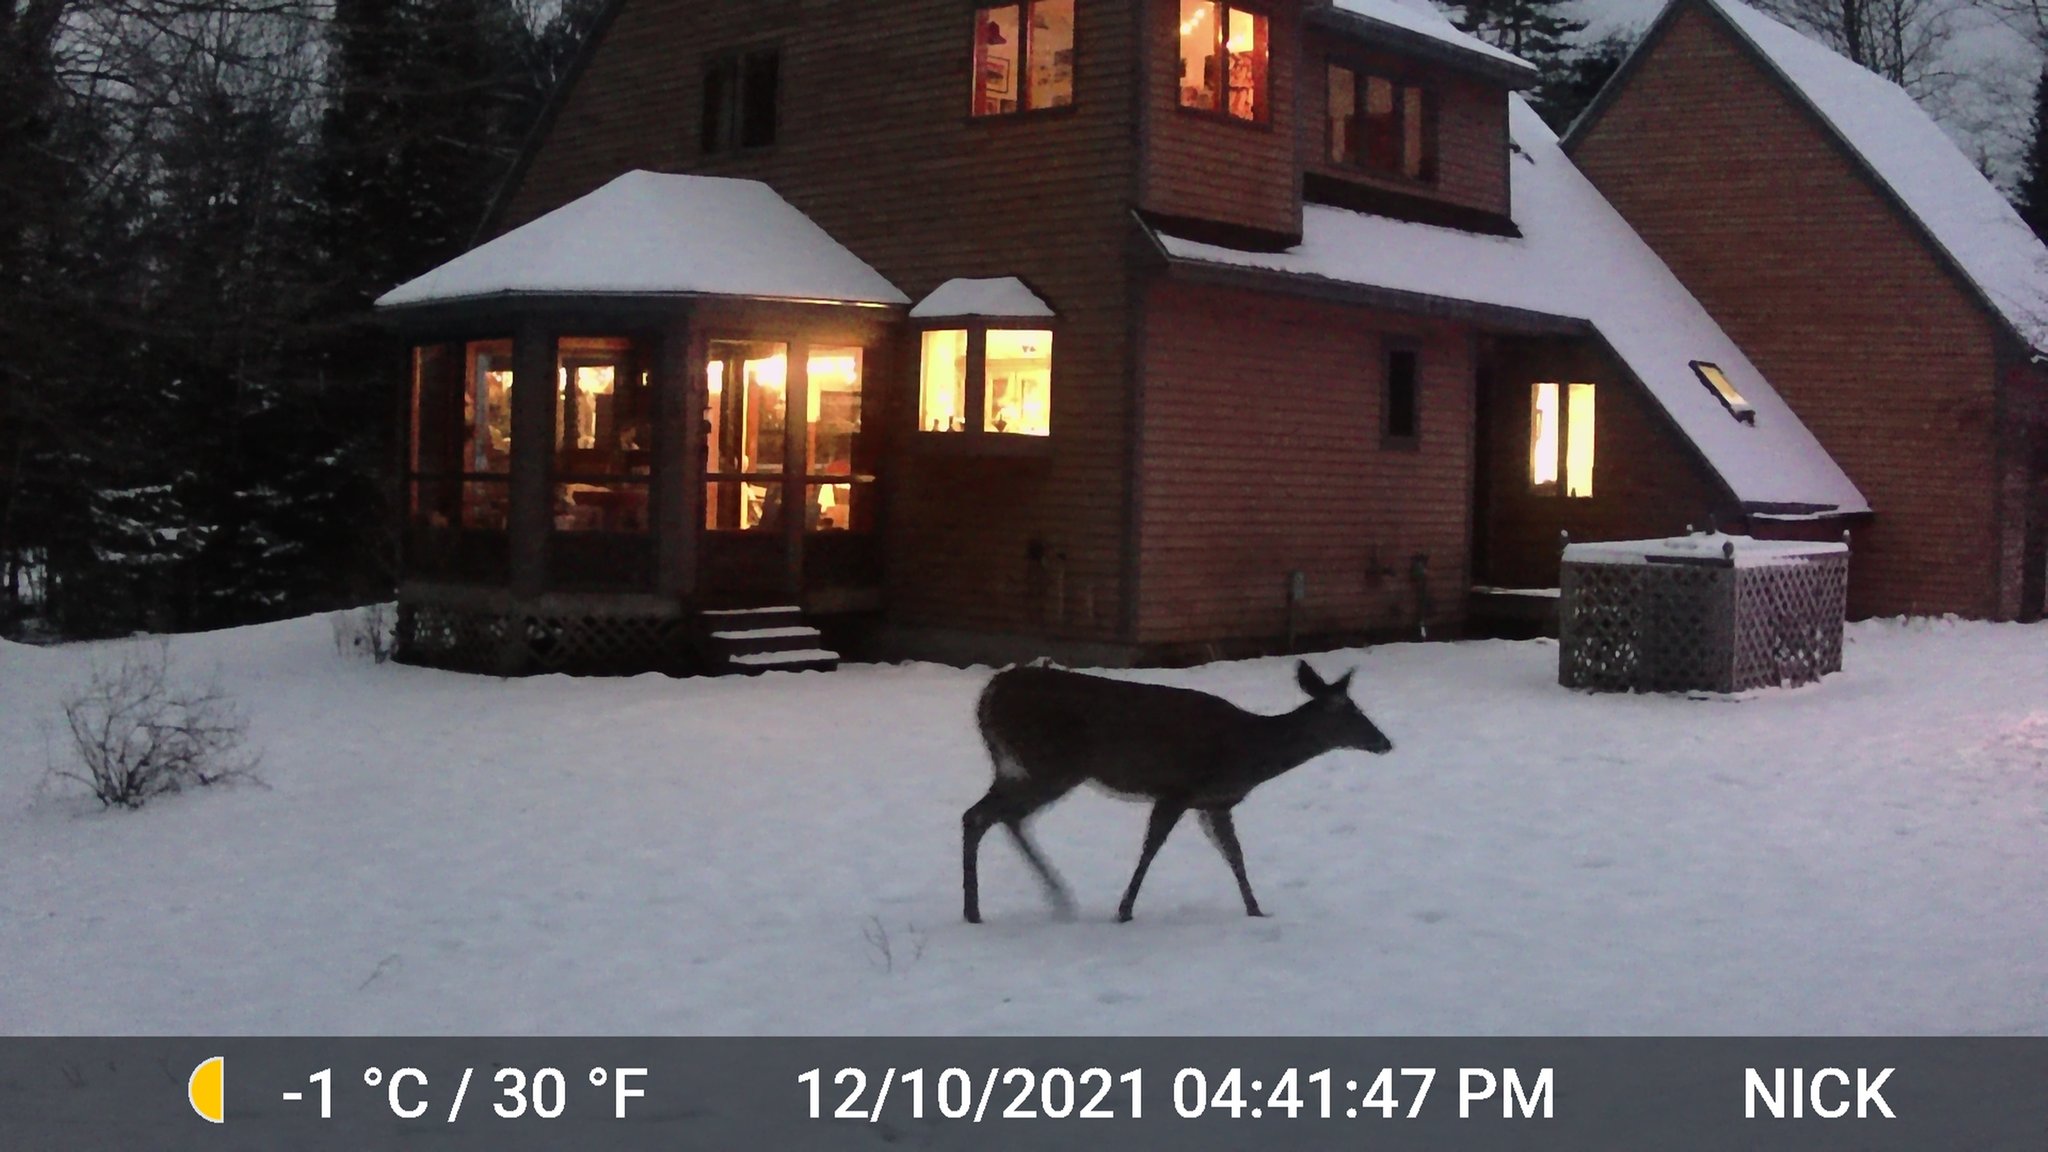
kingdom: Animalia
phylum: Chordata
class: Mammalia
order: Artiodactyla
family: Cervidae
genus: Odocoileus
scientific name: Odocoileus virginianus
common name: White-tailed deer
